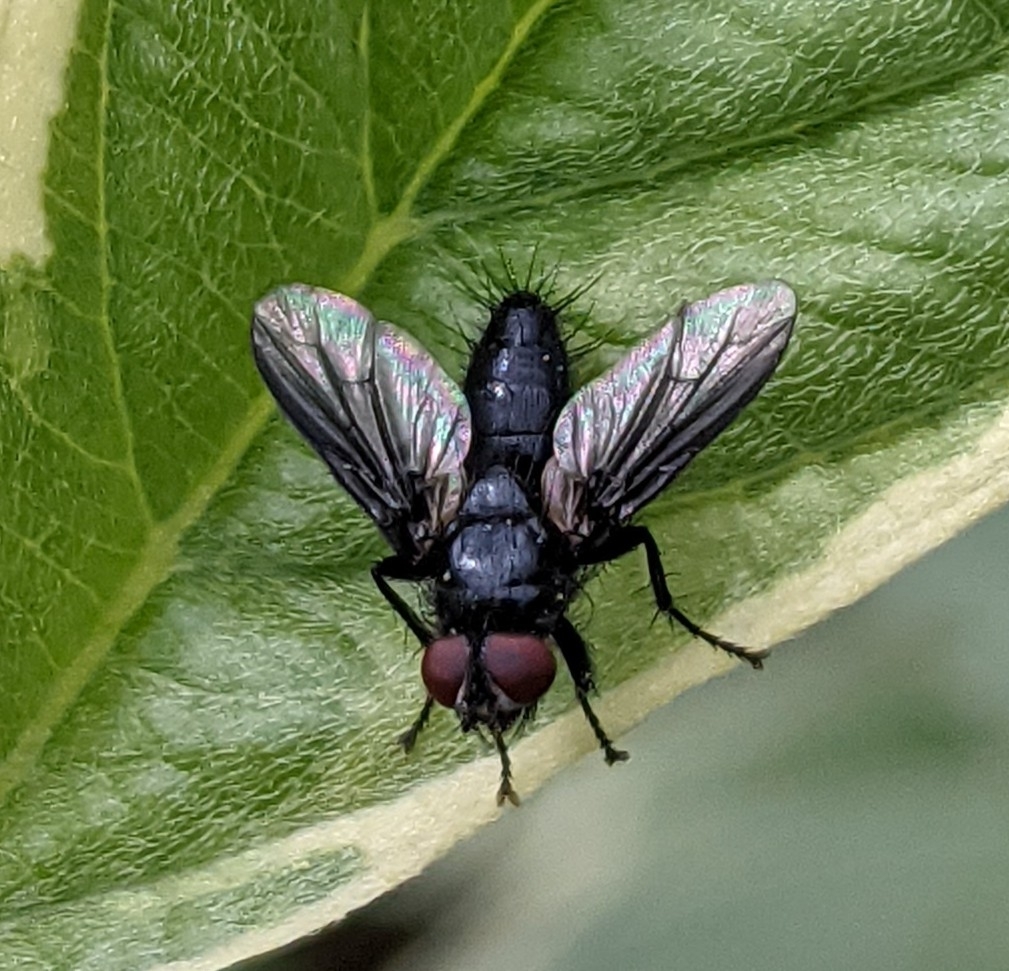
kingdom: Animalia
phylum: Arthropoda
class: Insecta
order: Diptera
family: Sarcophagidae
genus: Nyctia
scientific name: Nyctia halterata
